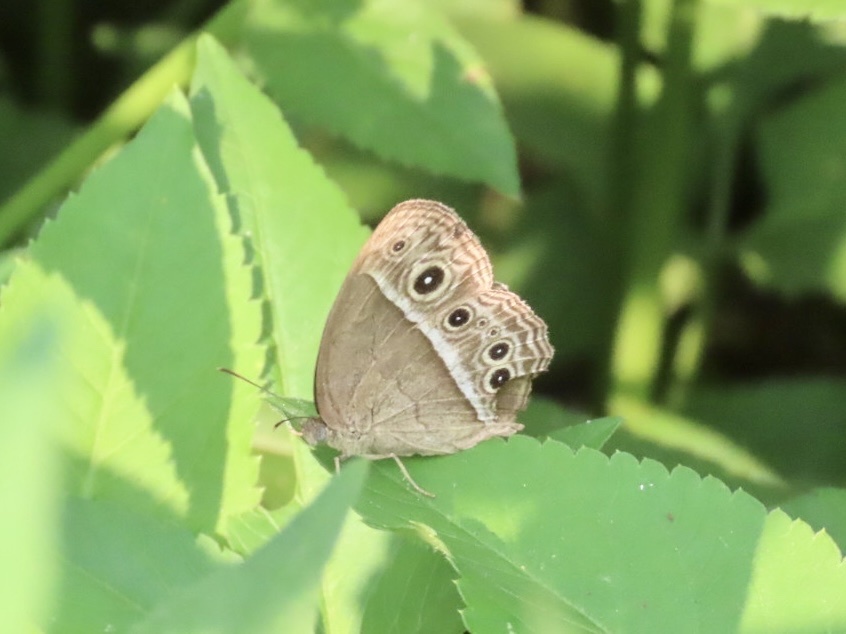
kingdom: Animalia
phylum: Arthropoda
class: Insecta
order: Lepidoptera
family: Nymphalidae
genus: Mycalesis
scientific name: Mycalesis mineus
